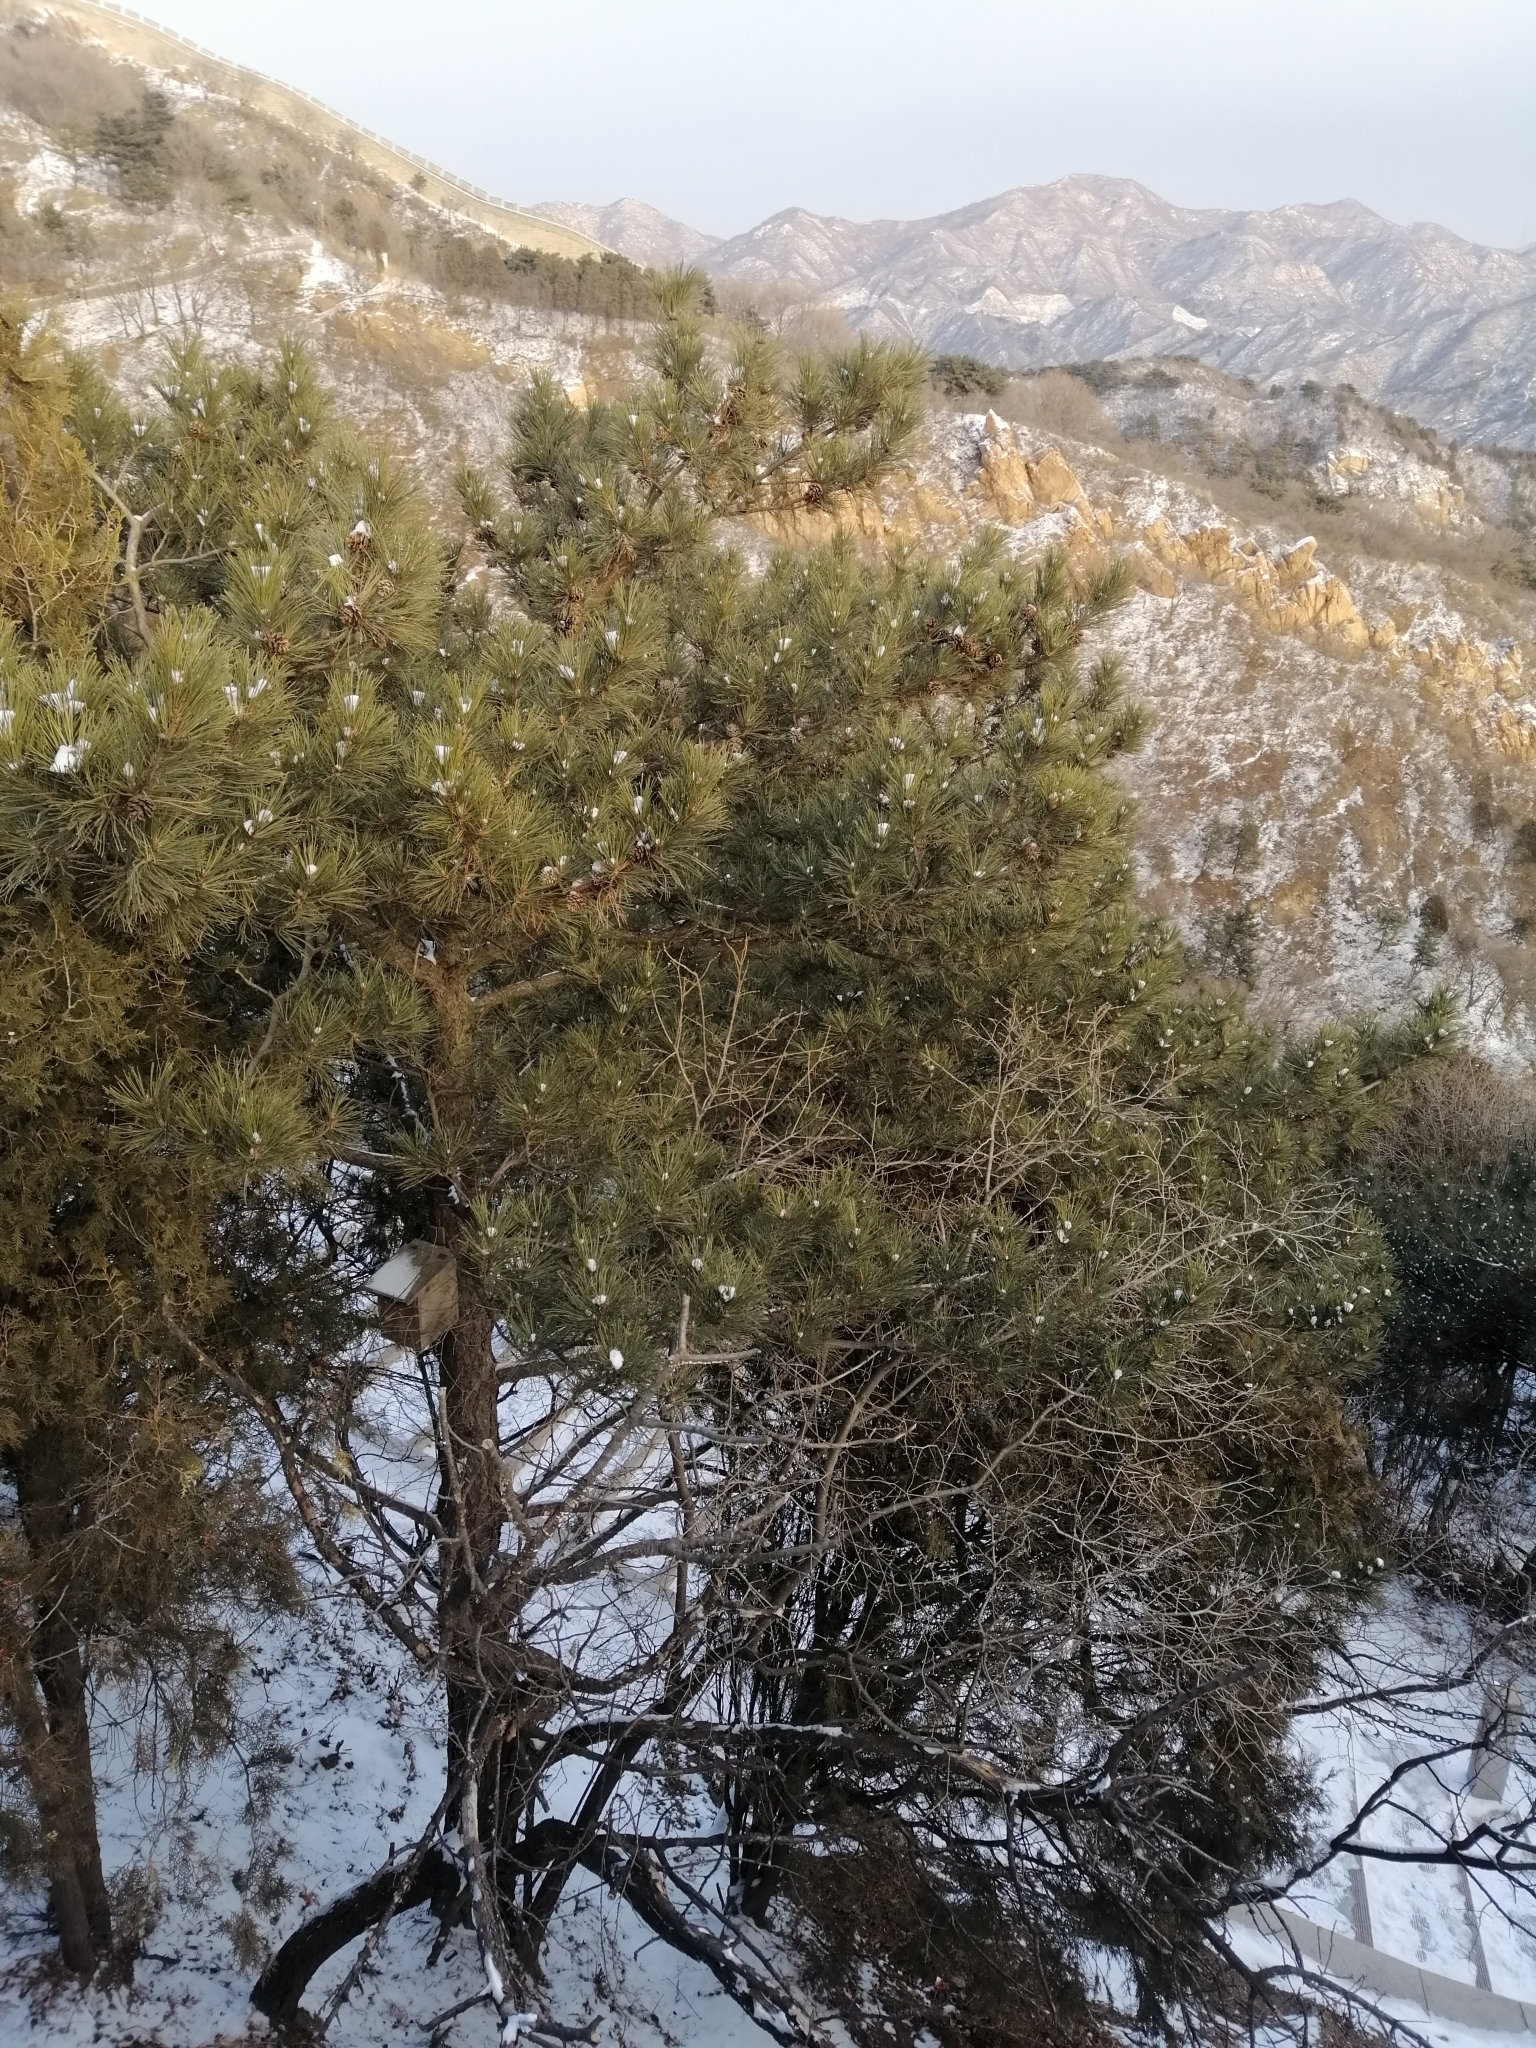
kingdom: Plantae
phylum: Tracheophyta
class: Pinopsida
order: Pinales
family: Pinaceae
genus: Pinus
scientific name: Pinus tabuliformis
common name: Chinese red pine
